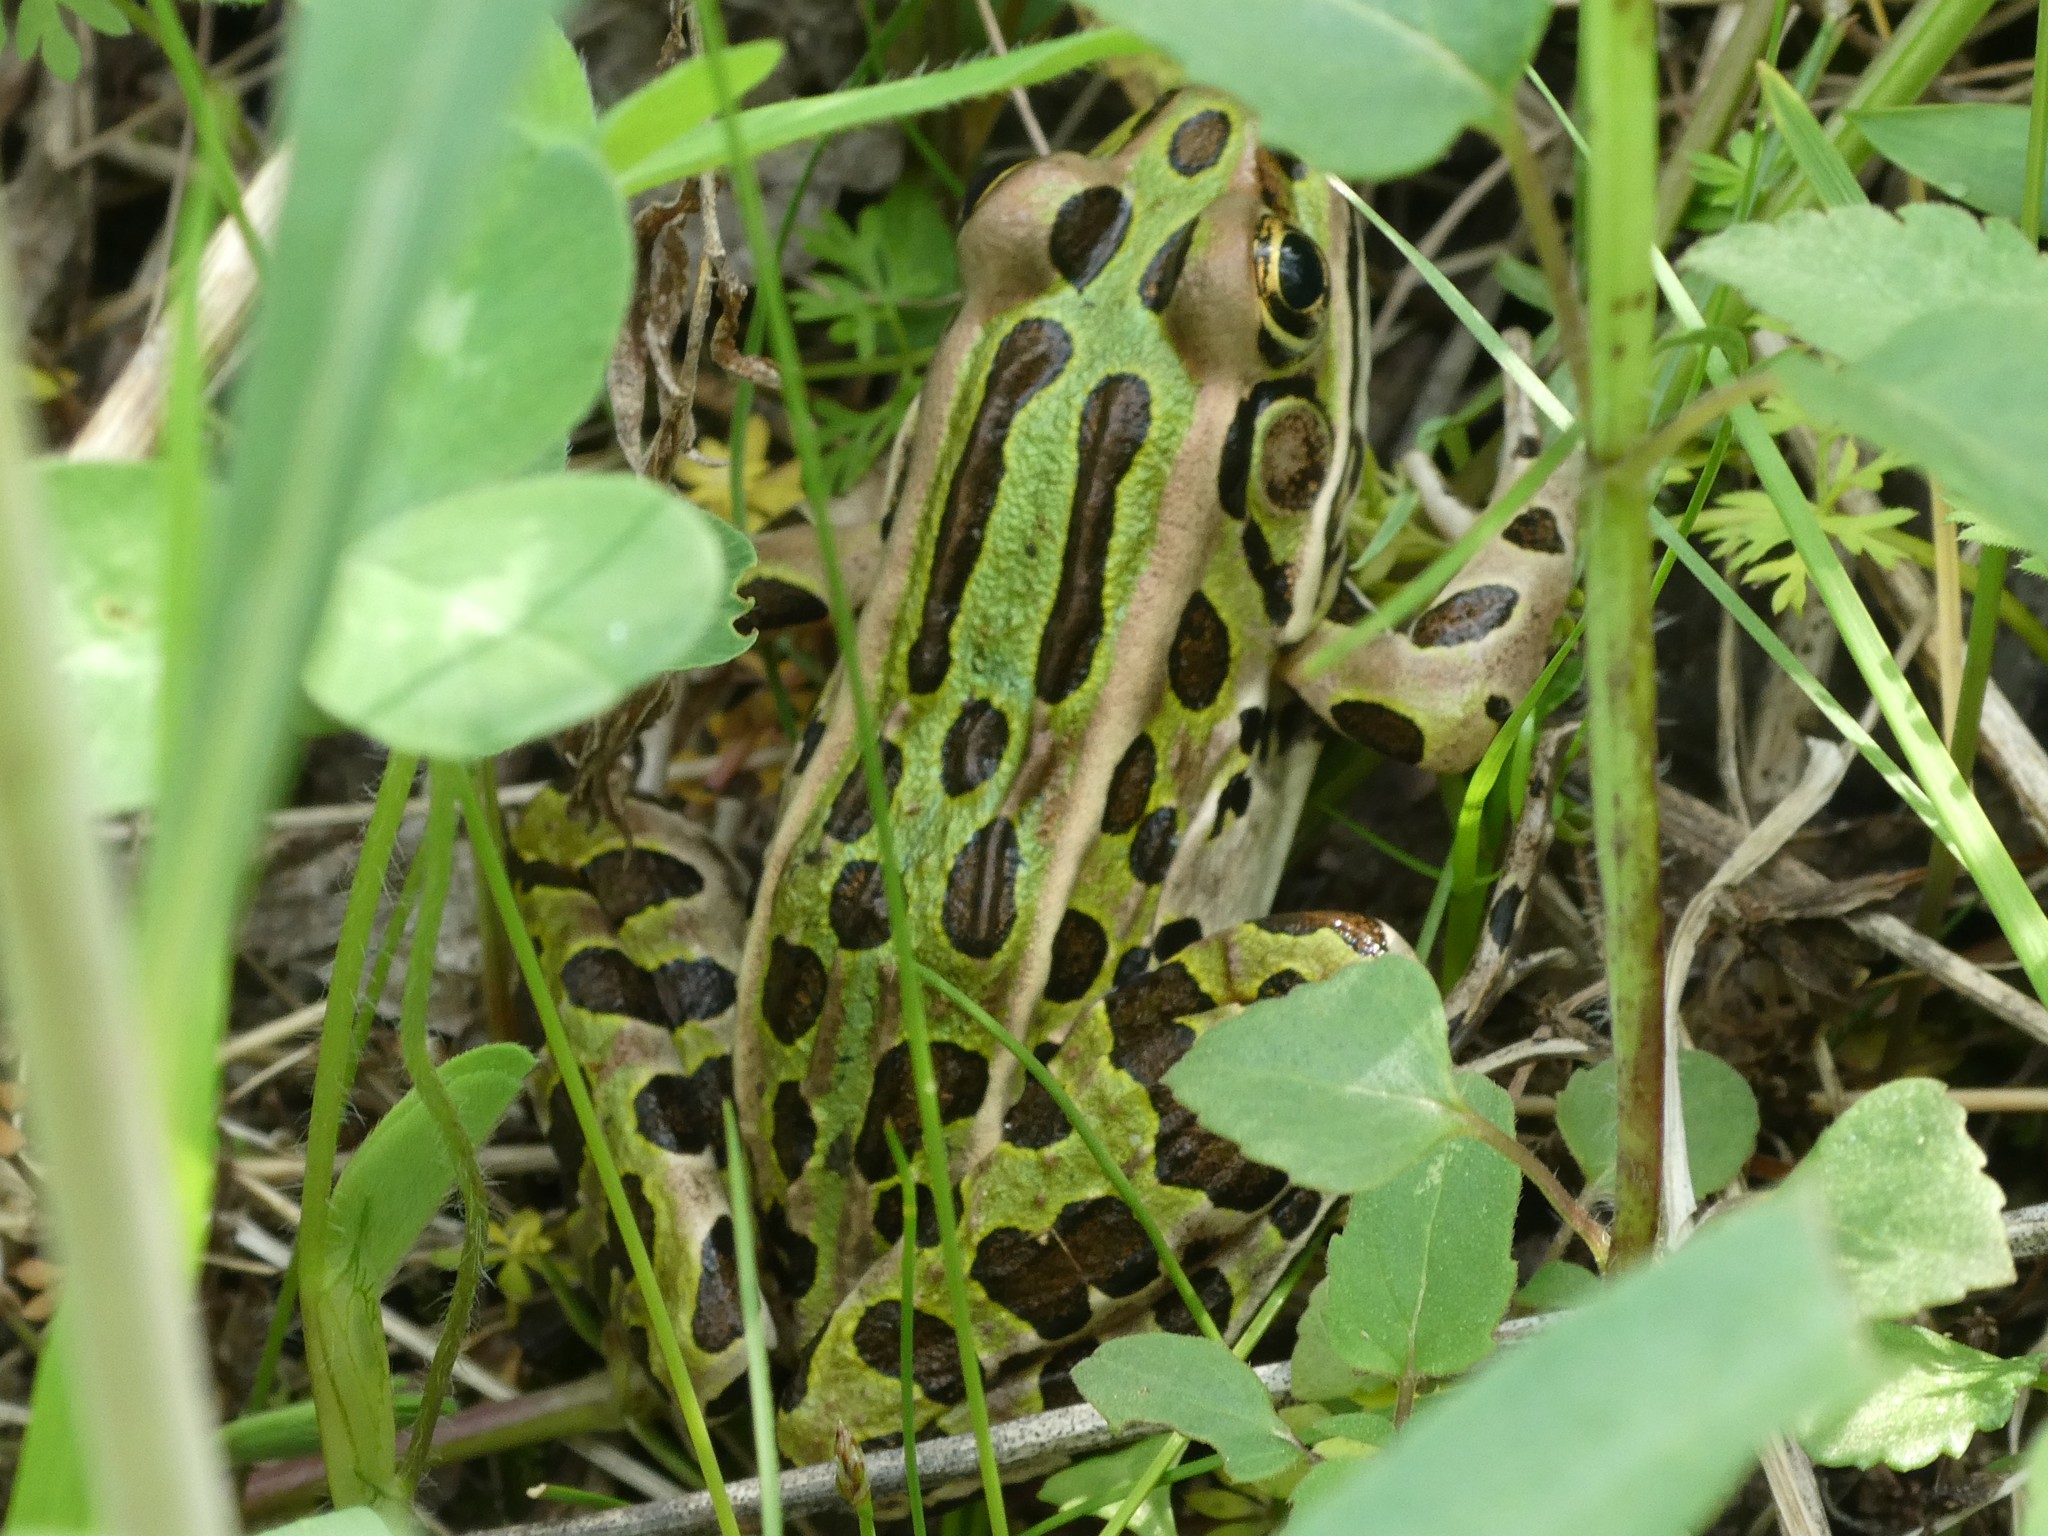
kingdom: Animalia
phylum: Chordata
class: Amphibia
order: Anura
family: Ranidae
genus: Lithobates
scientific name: Lithobates pipiens
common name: Northern leopard frog
